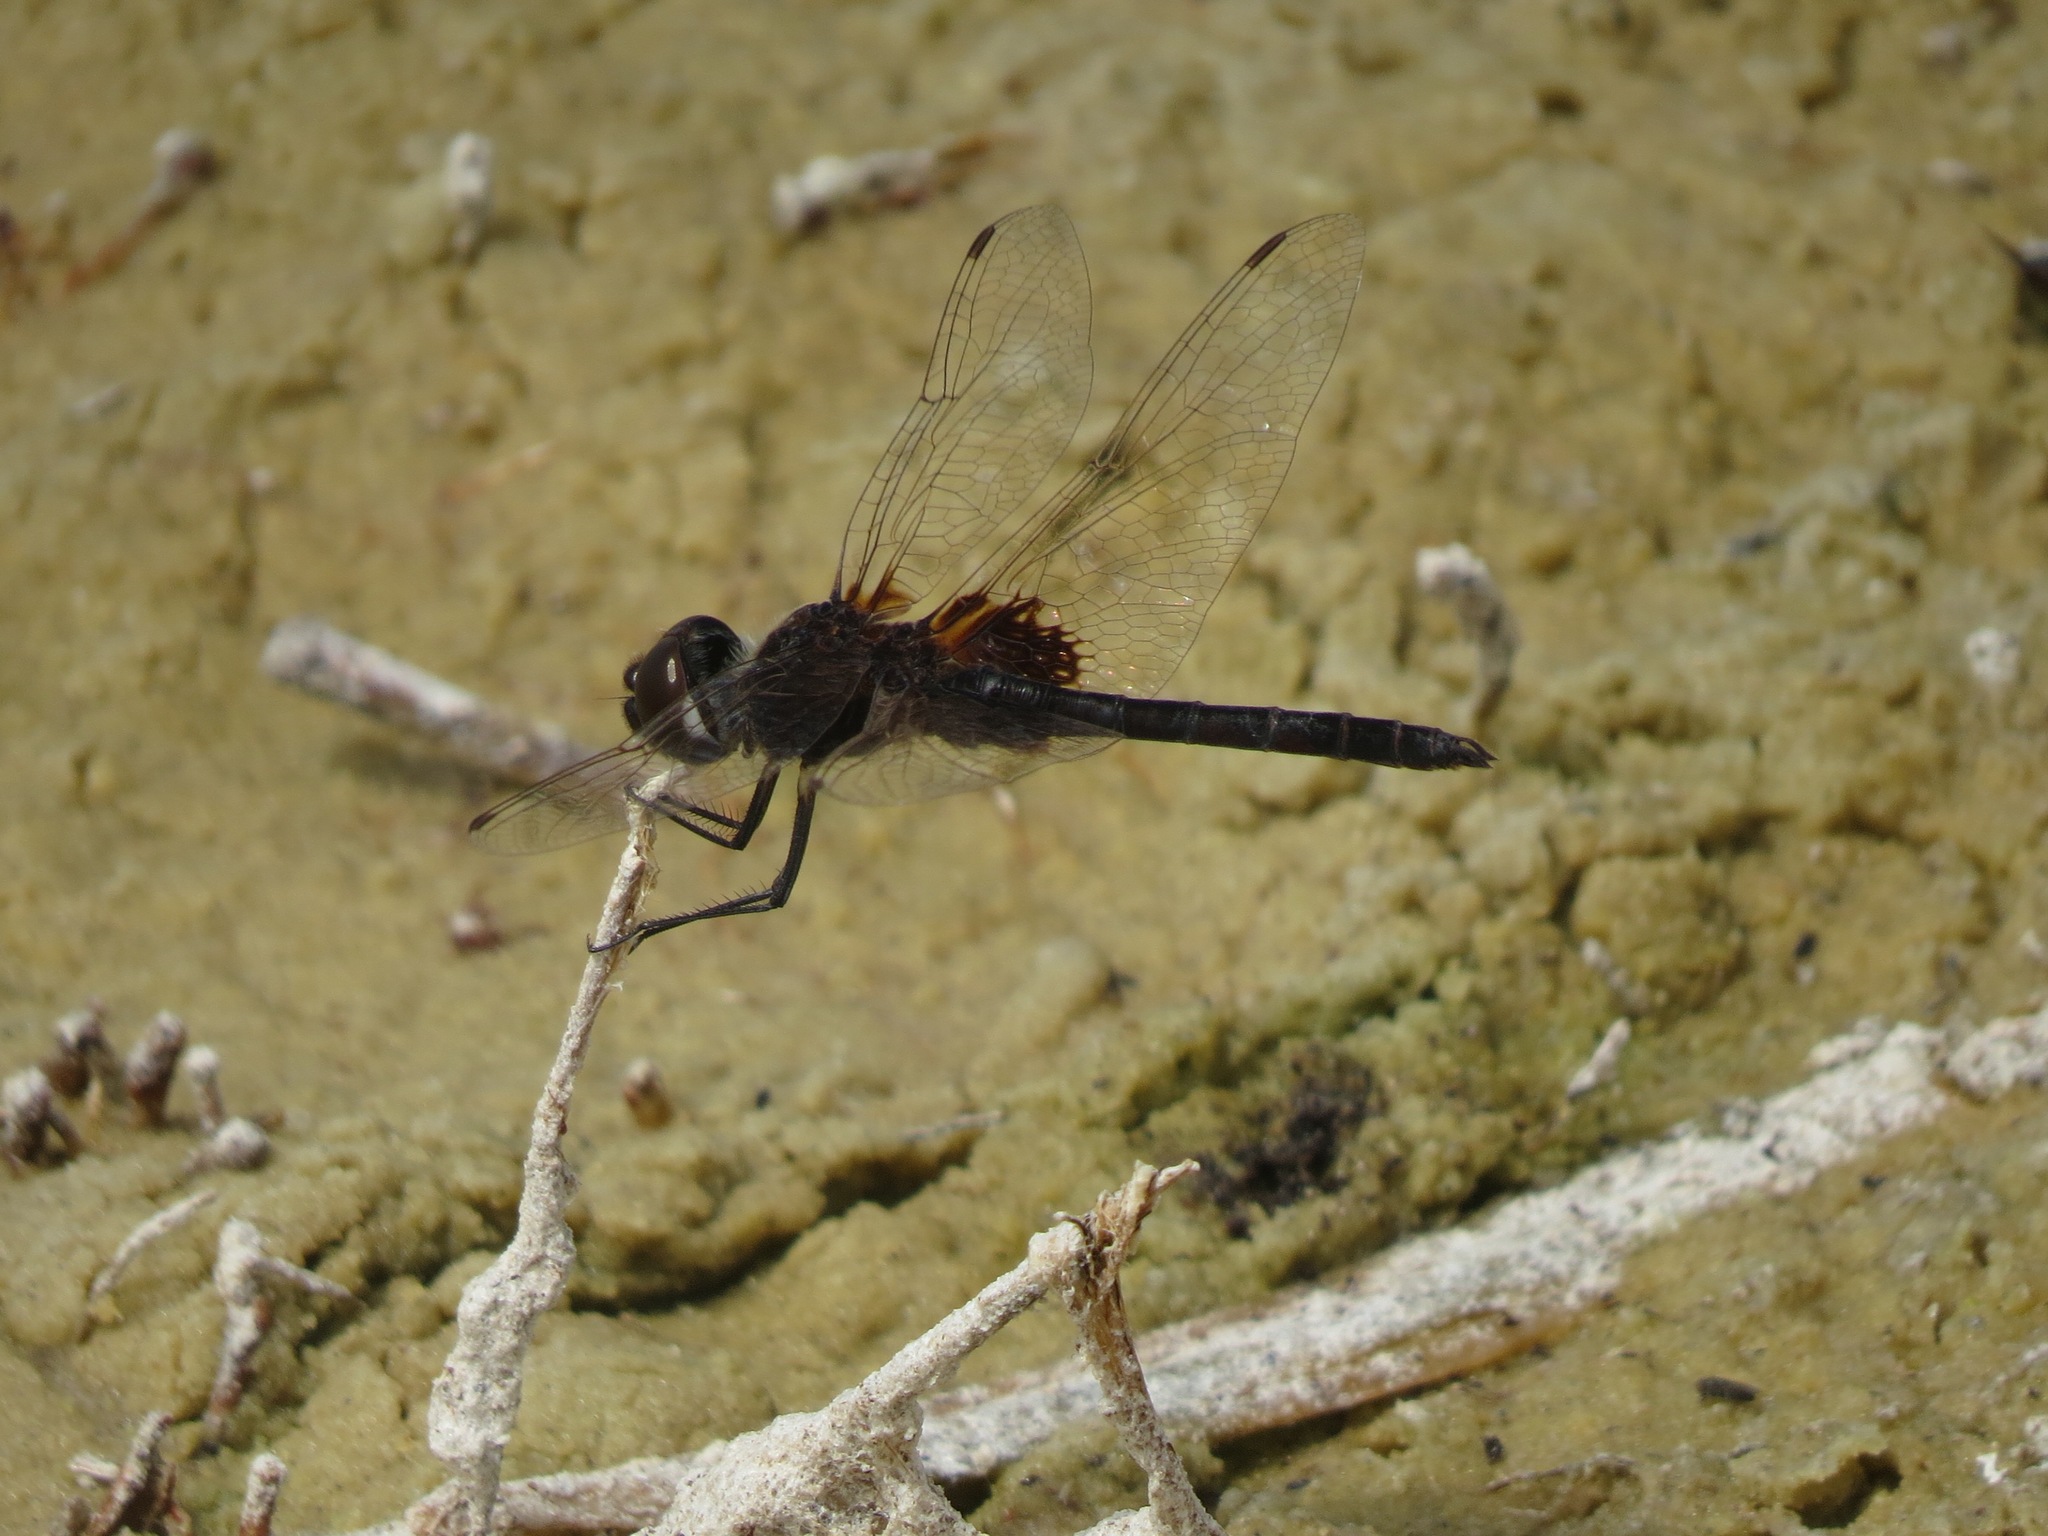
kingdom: Animalia
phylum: Arthropoda
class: Insecta
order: Odonata
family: Libellulidae
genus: Macrodiplax
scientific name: Macrodiplax balteata
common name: Marl pennant
